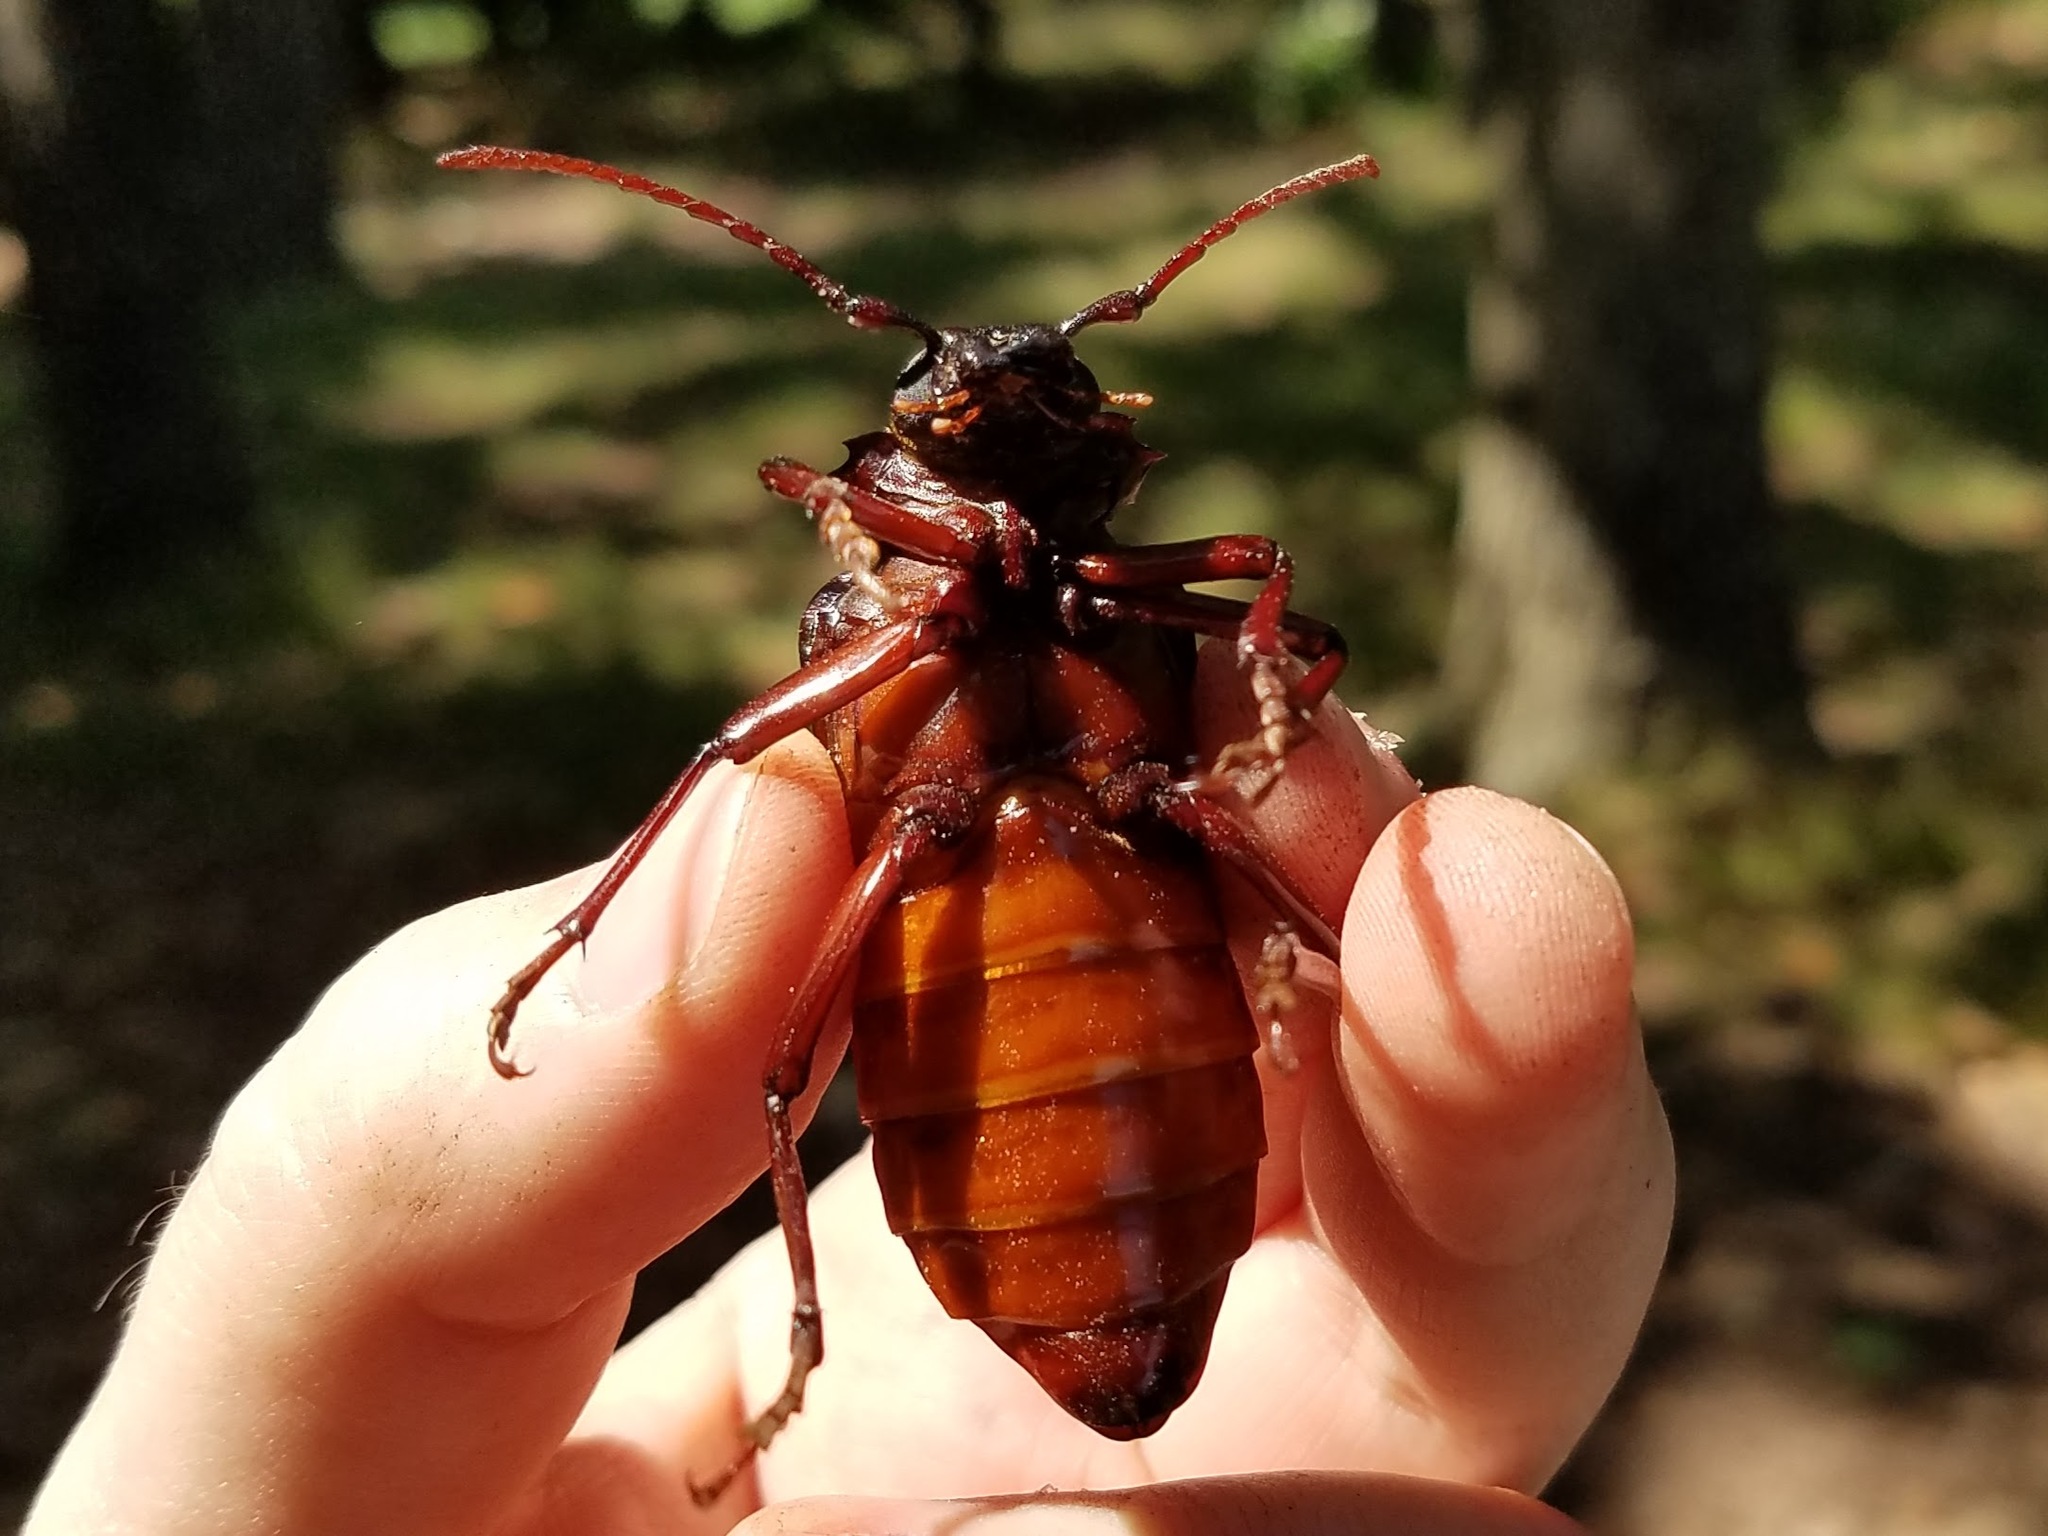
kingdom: Animalia
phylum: Arthropoda
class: Insecta
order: Coleoptera
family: Cerambycidae
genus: Prionus
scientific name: Prionus imbricornis
